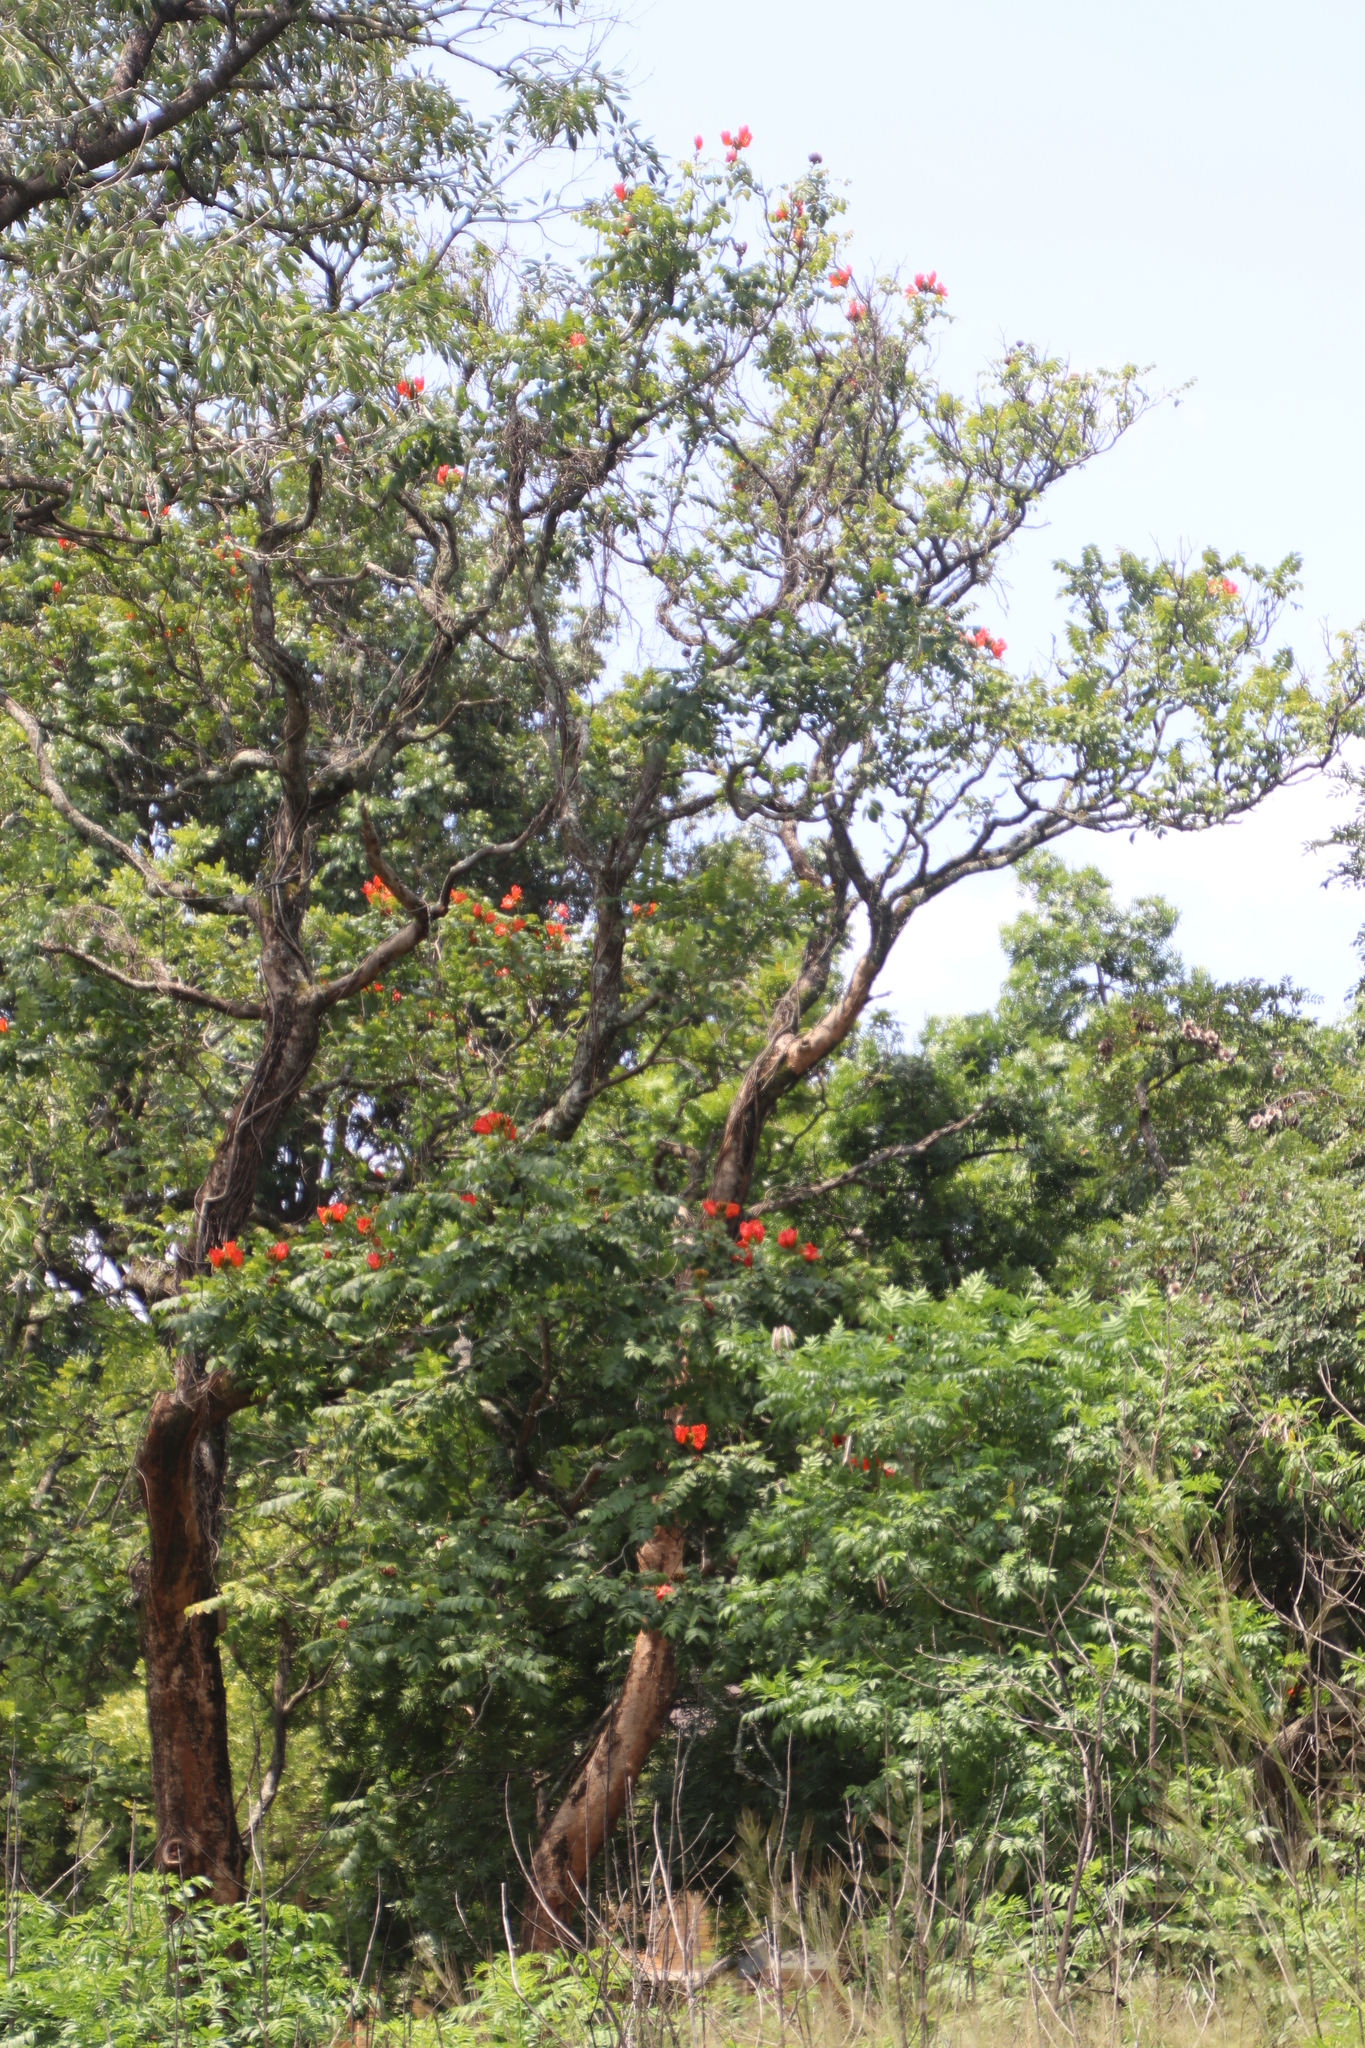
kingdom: Plantae
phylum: Tracheophyta
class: Magnoliopsida
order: Lamiales
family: Bignoniaceae
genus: Spathodea
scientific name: Spathodea campanulata
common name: African tuliptree
